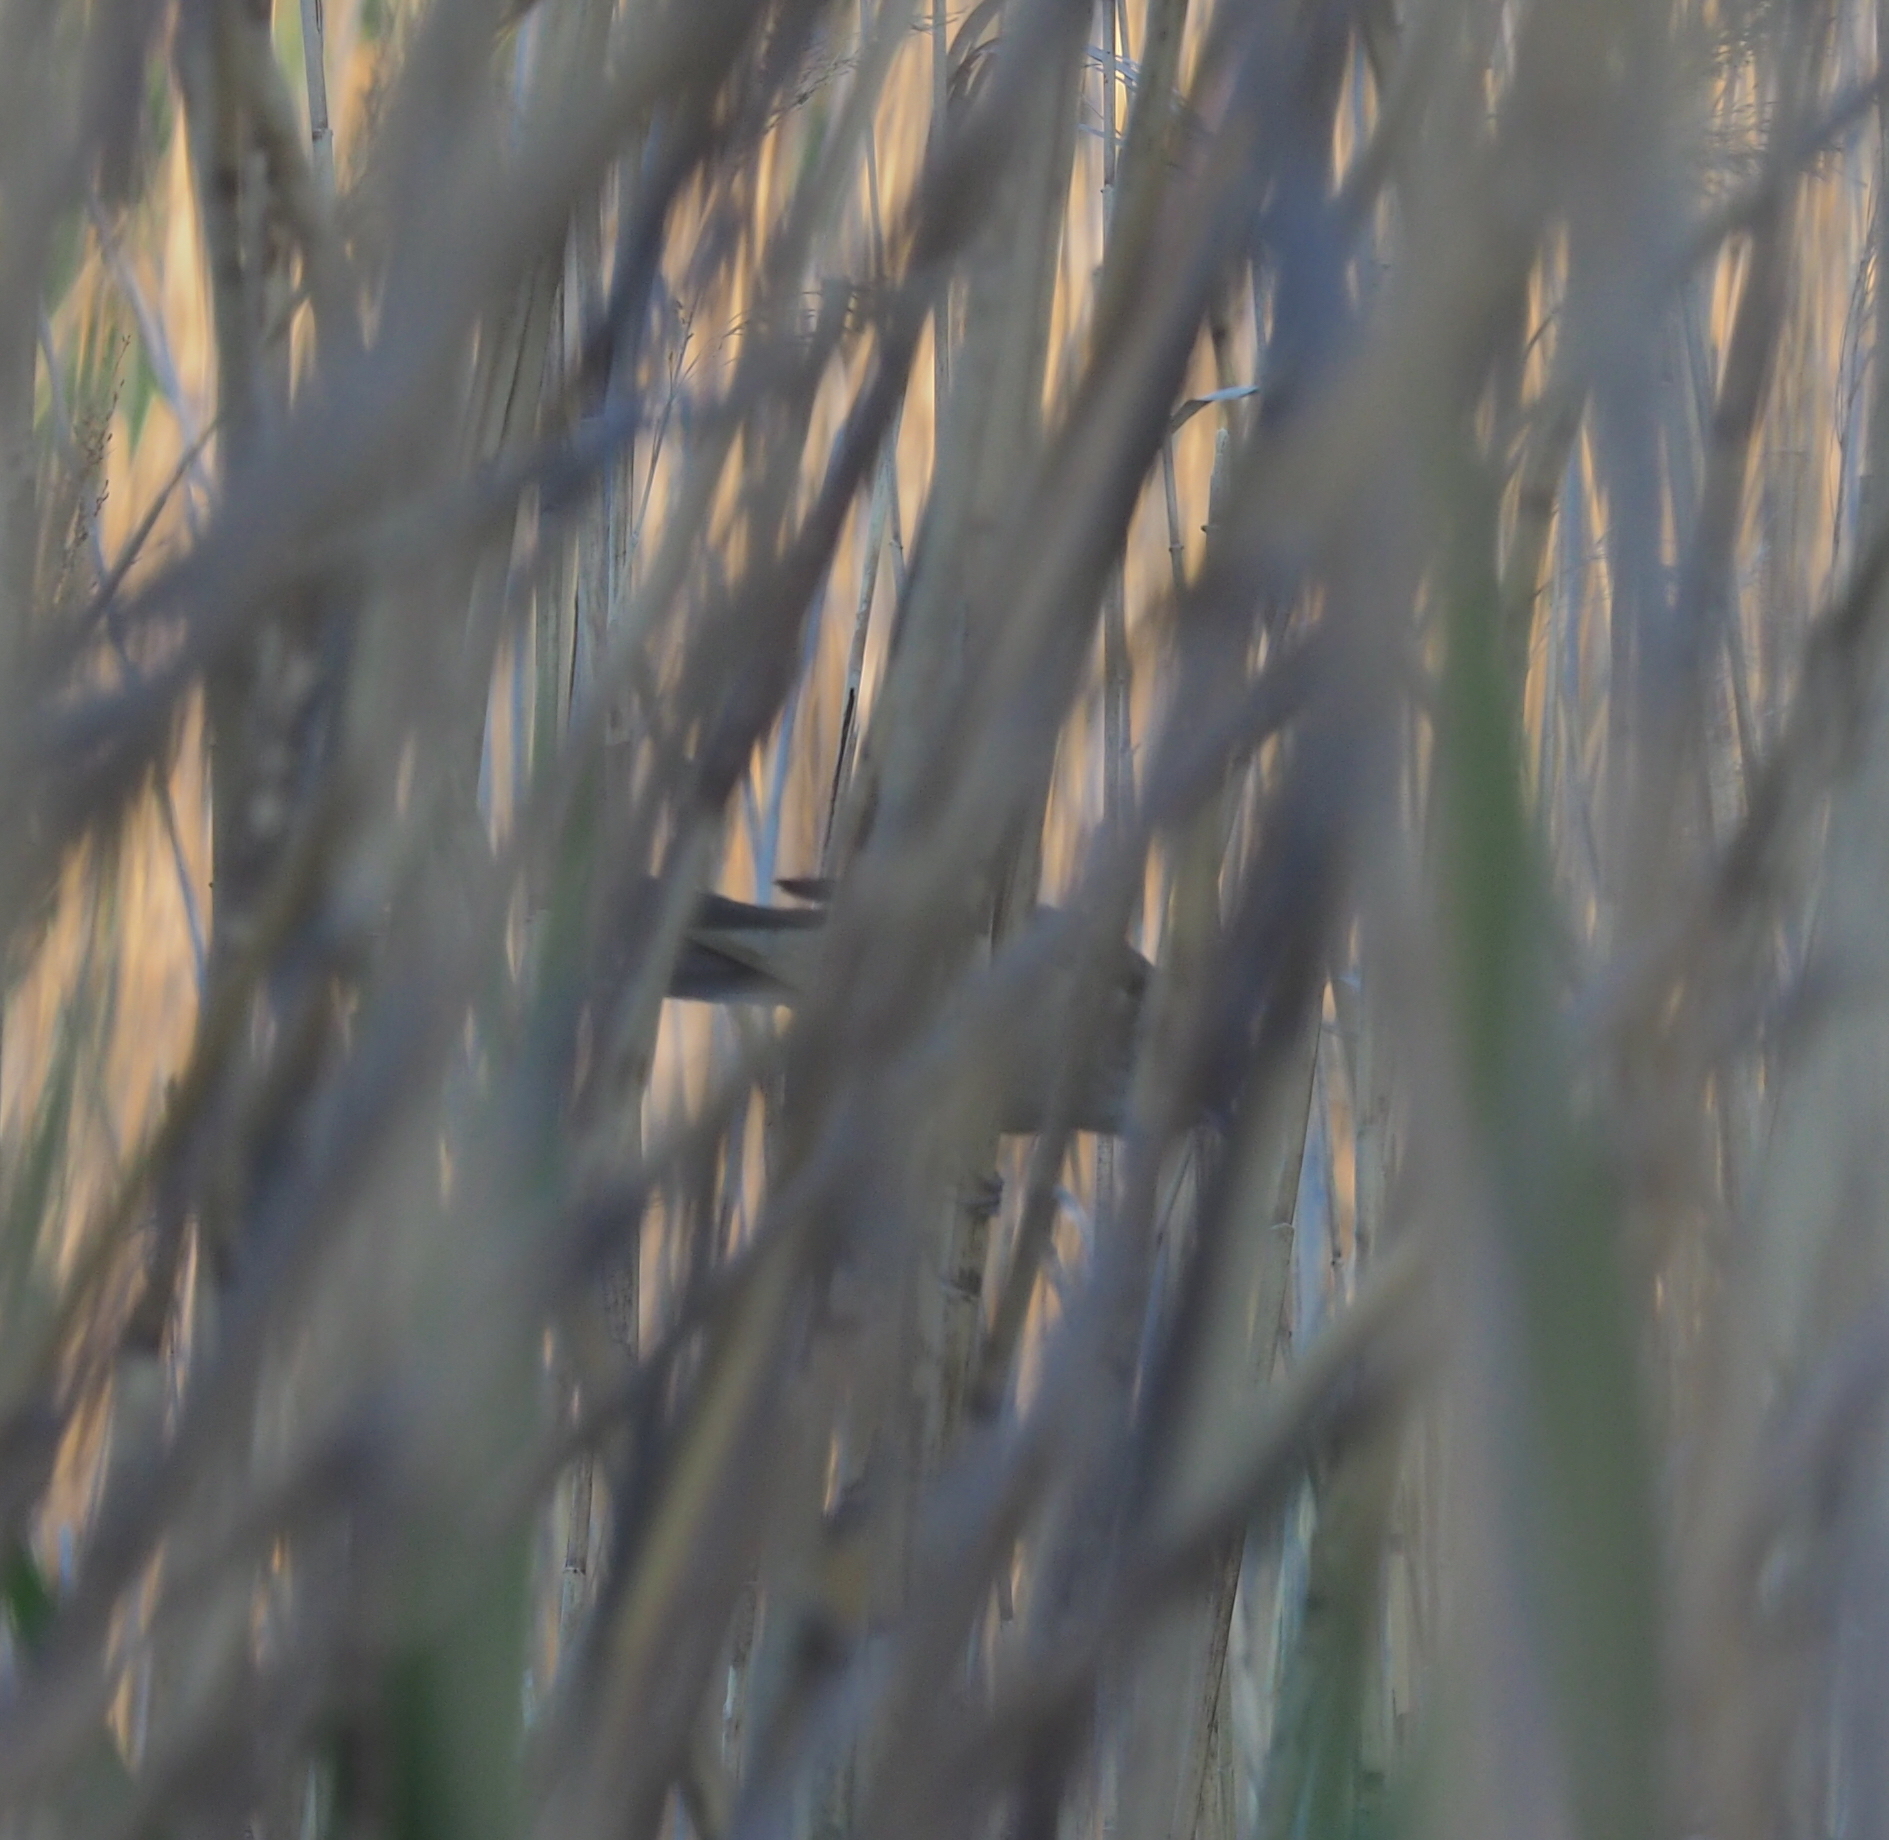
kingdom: Animalia
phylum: Chordata
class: Aves
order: Passeriformes
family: Acrocephalidae
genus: Acrocephalus
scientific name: Acrocephalus arundinaceus
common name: Great reed warbler
